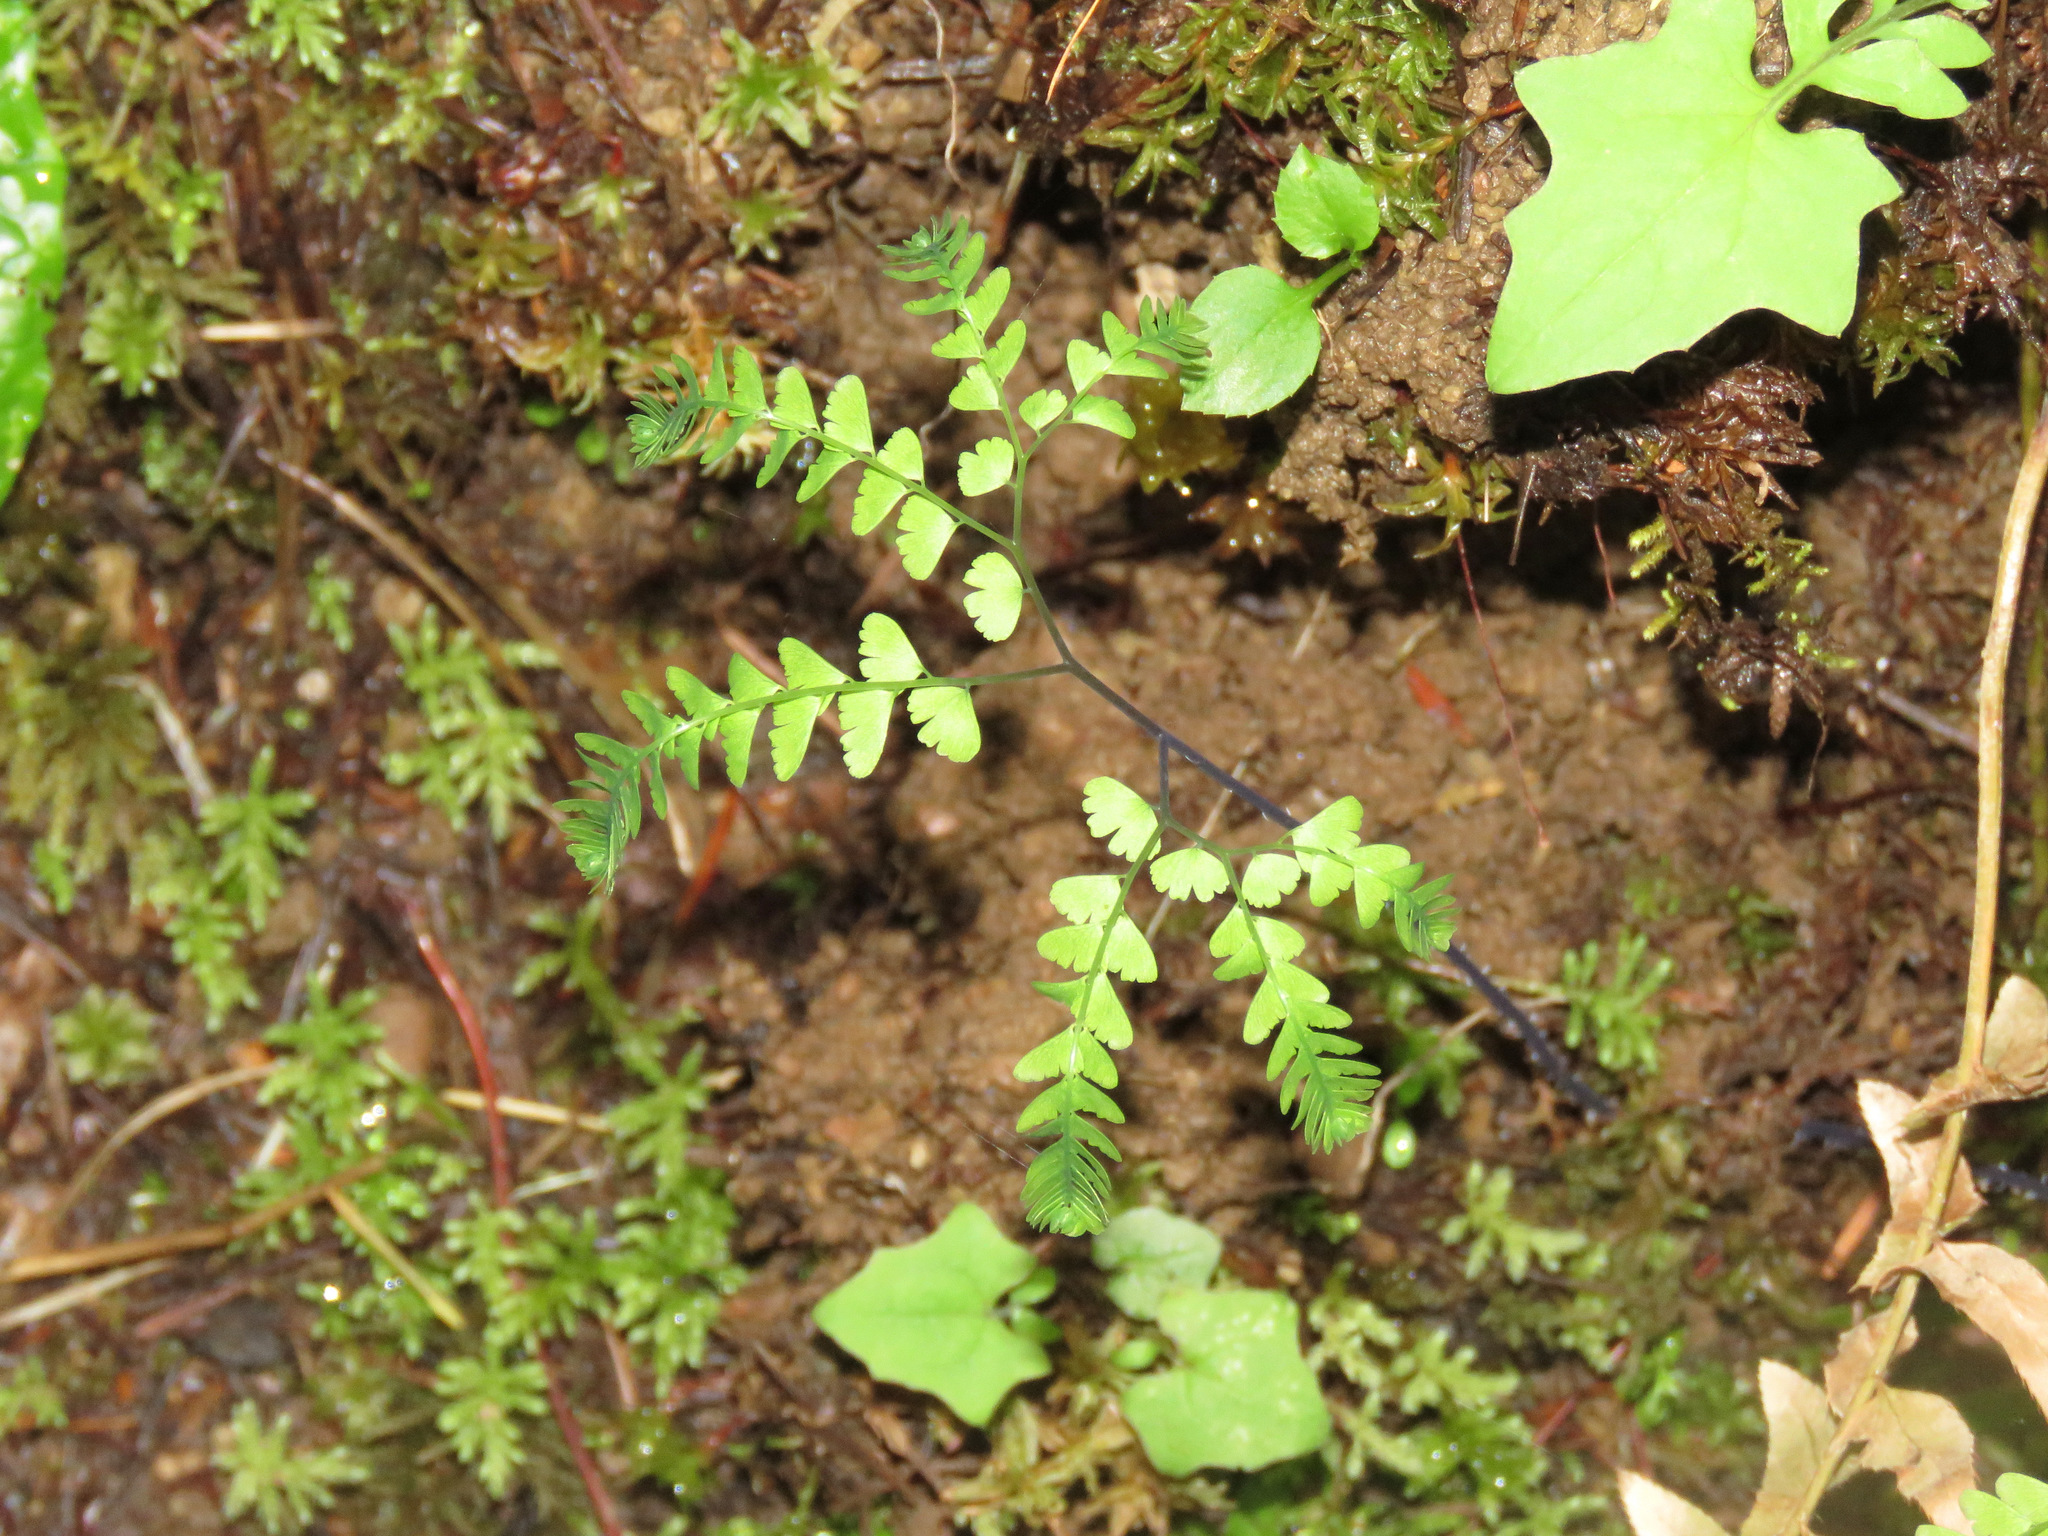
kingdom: Plantae
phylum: Tracheophyta
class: Polypodiopsida
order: Polypodiales
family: Pteridaceae
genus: Adiantum
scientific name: Adiantum aleuticum
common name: Aleutian maidenhair fern
